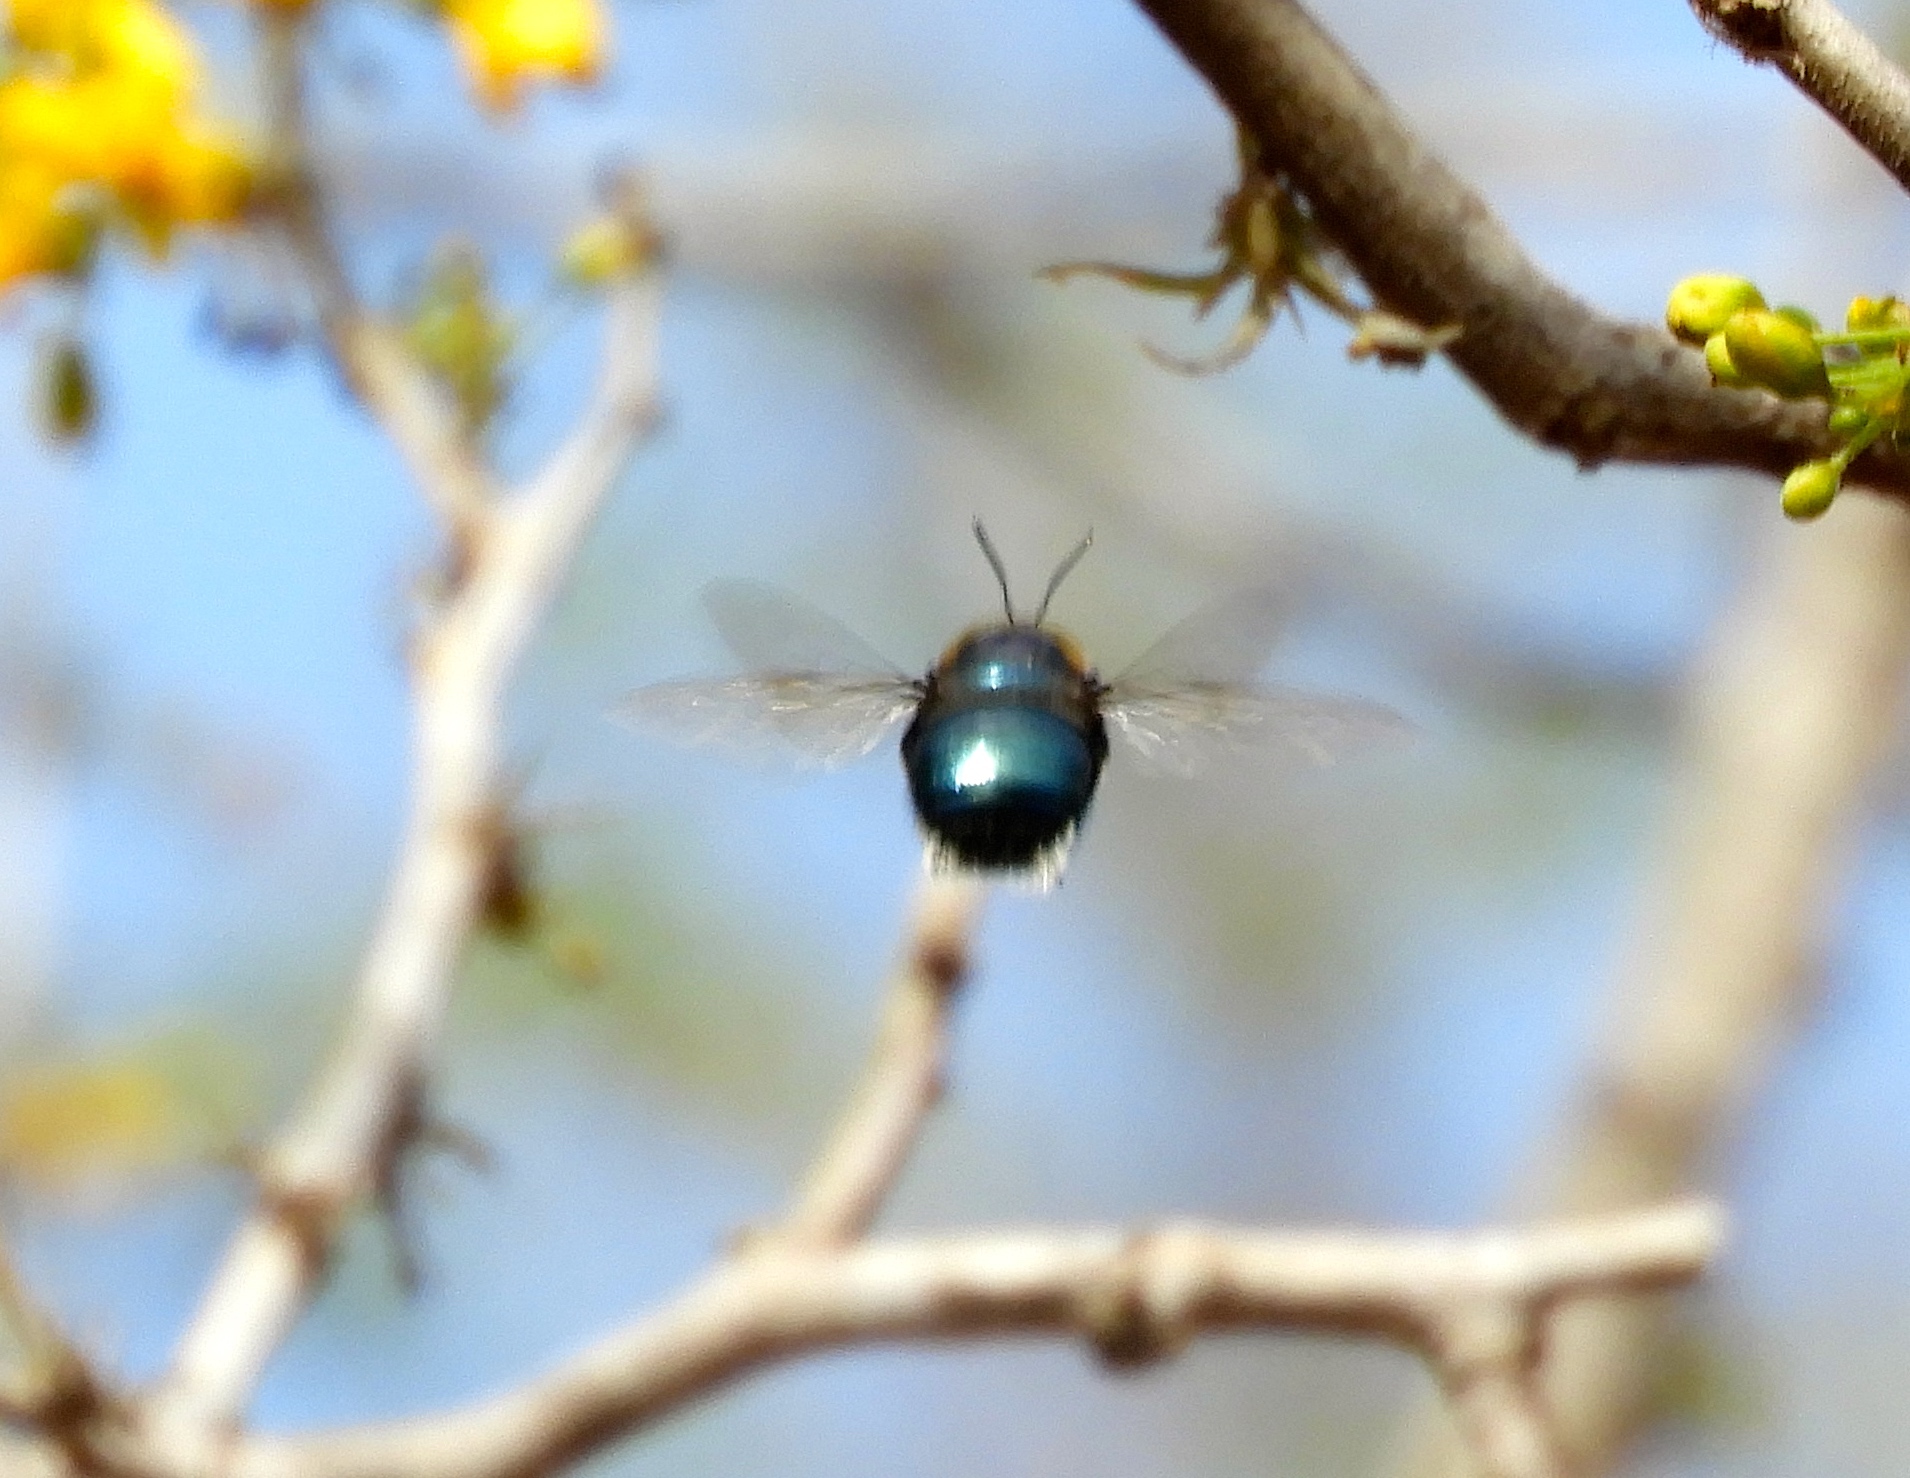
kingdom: Animalia
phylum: Arthropoda
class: Insecta
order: Hymenoptera
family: Apidae
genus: Xylocopa
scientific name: Xylocopa
